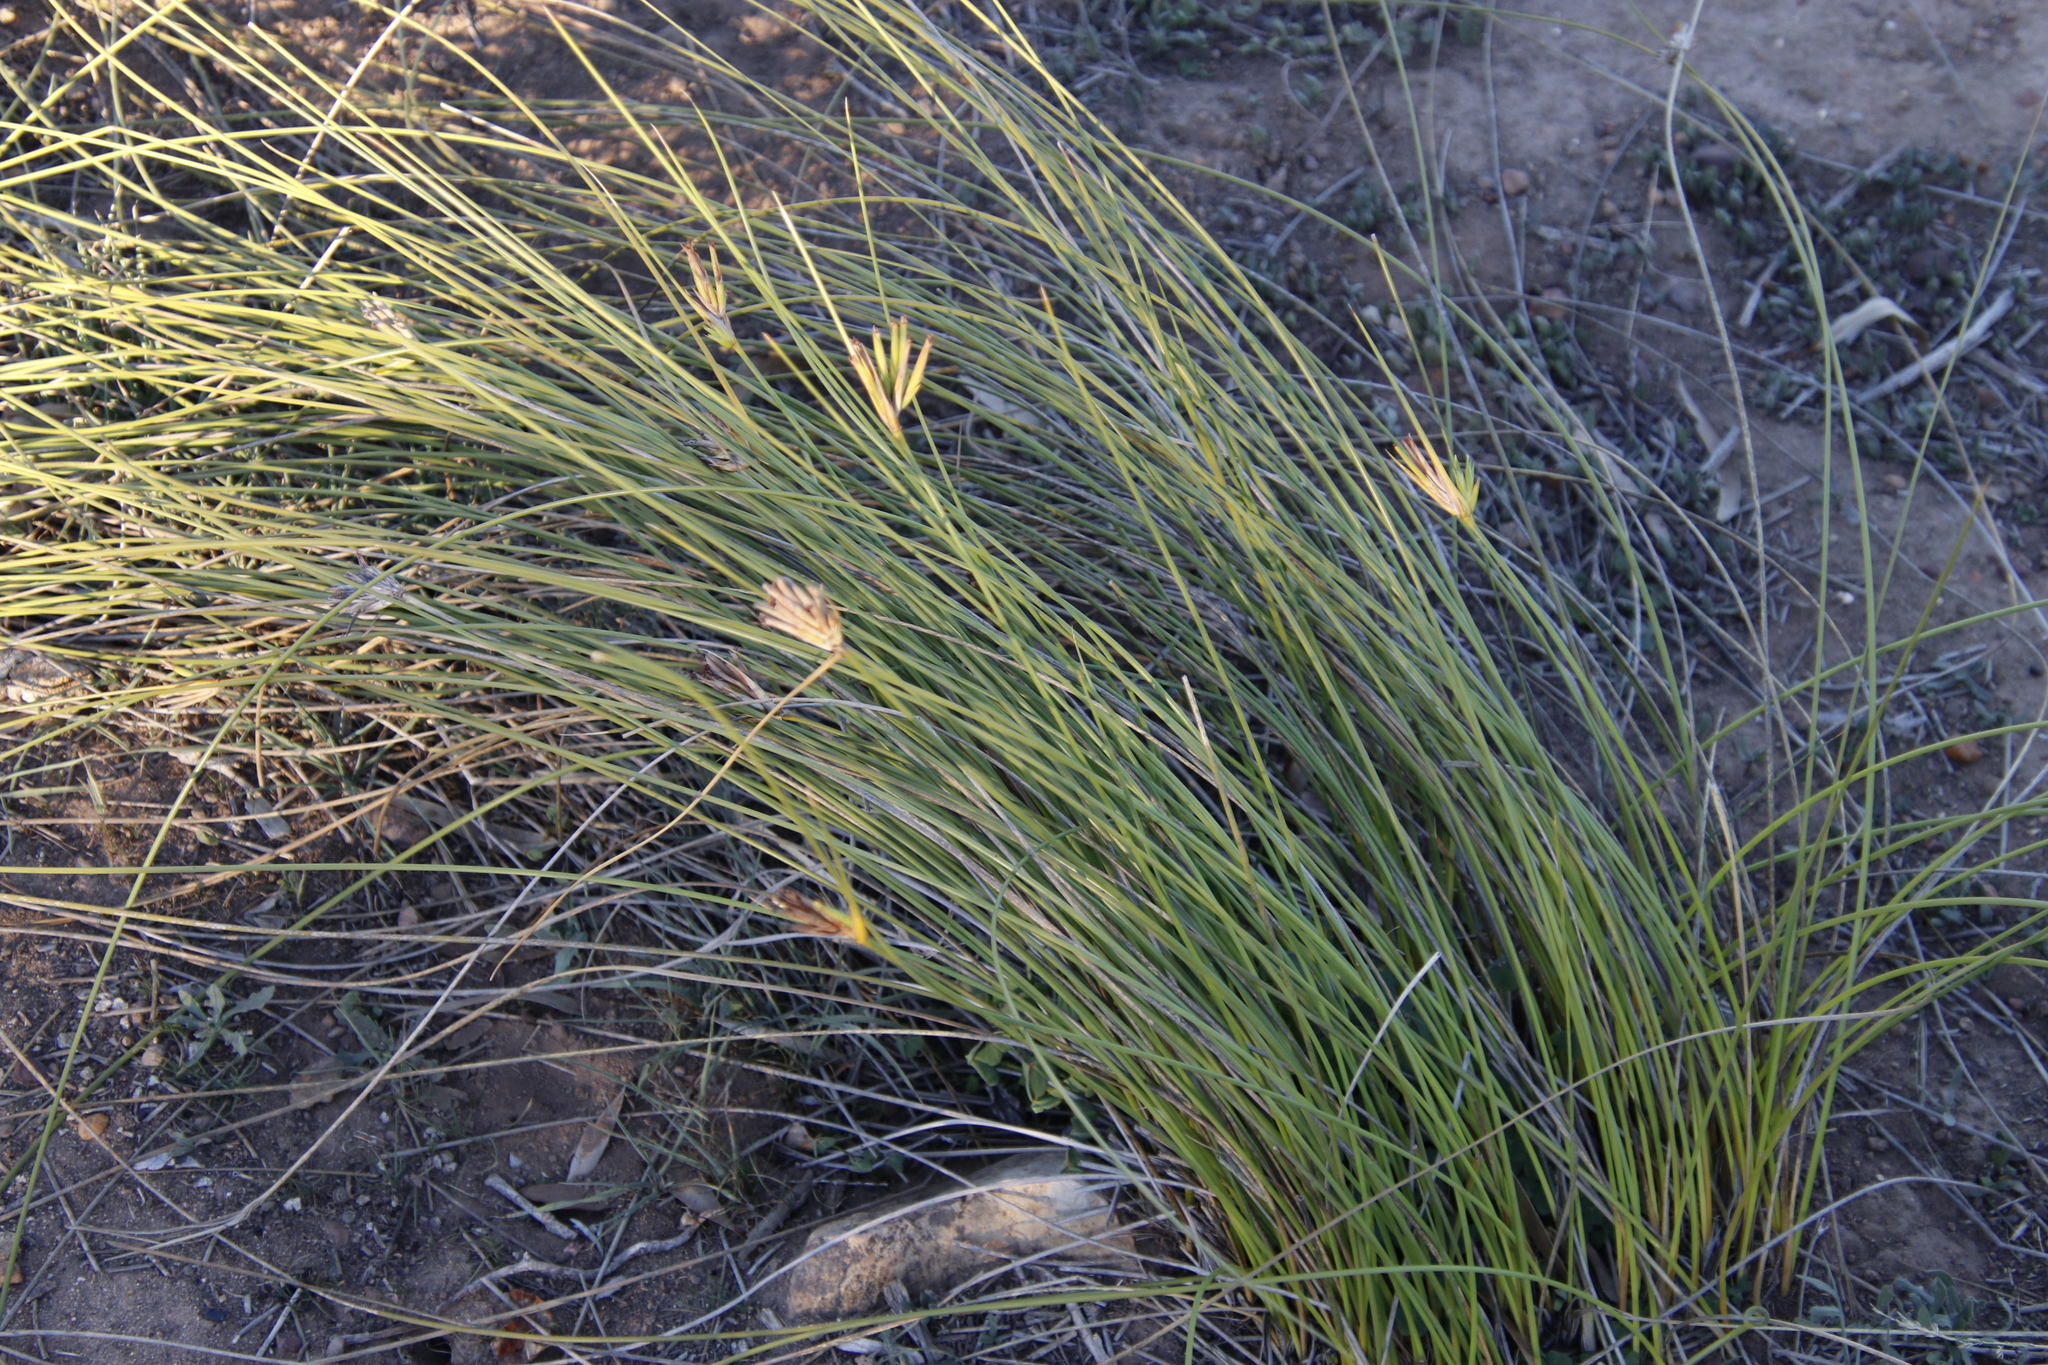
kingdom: Plantae
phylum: Tracheophyta
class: Liliopsida
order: Asparagales
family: Iridaceae
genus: Bobartia
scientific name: Bobartia indica
